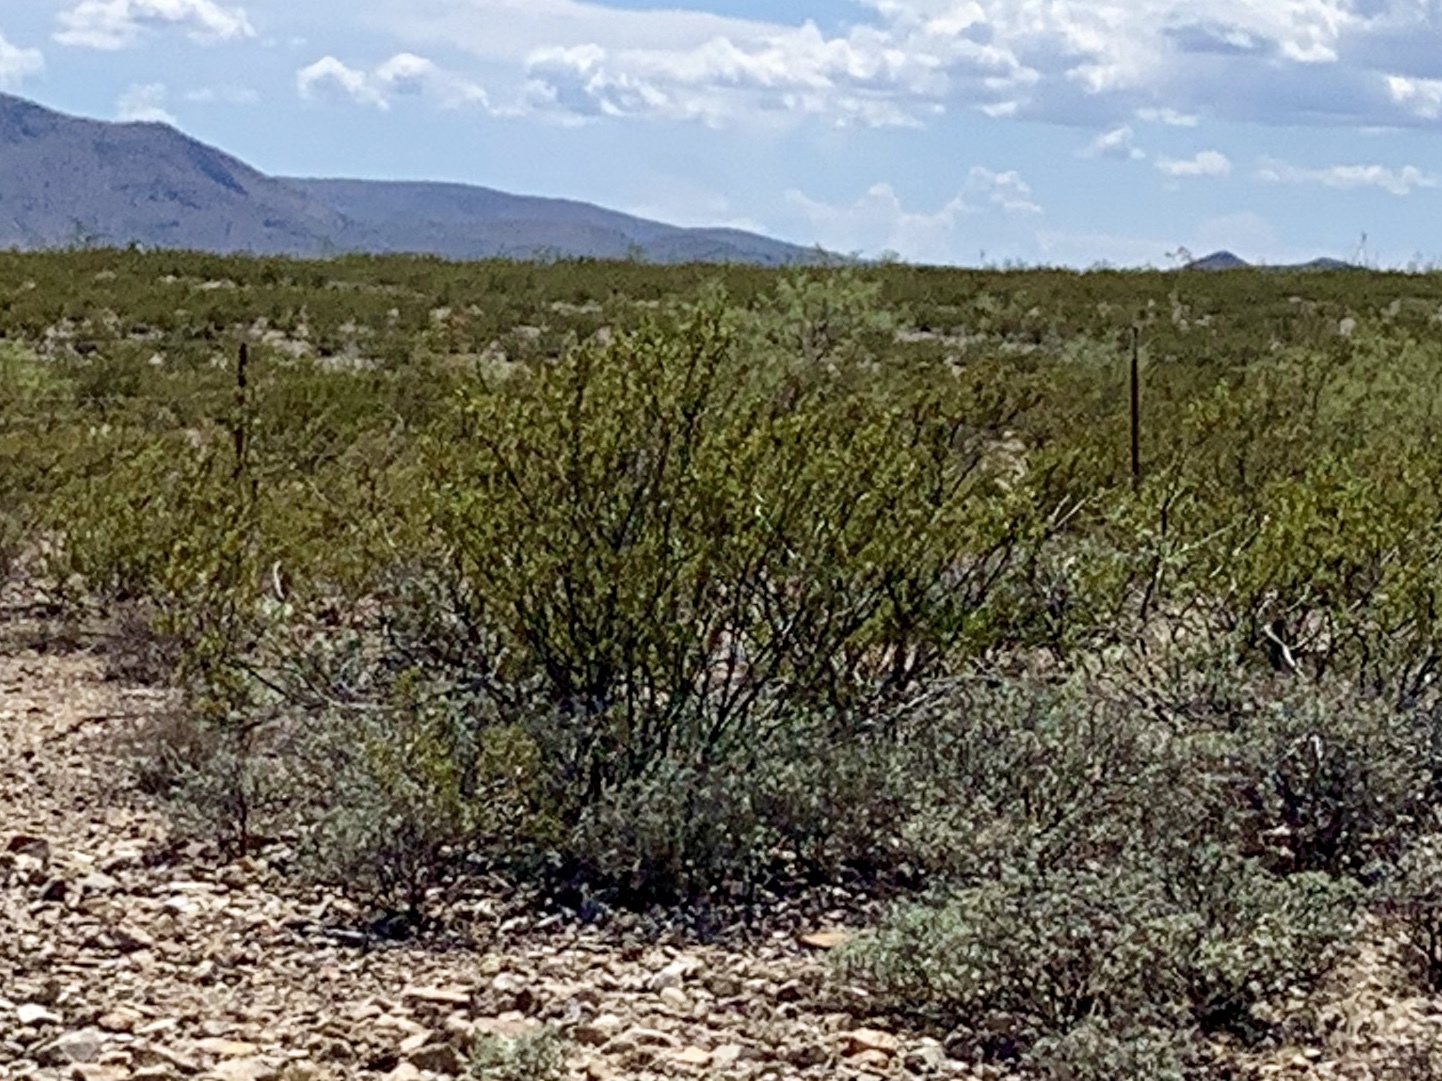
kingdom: Plantae
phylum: Tracheophyta
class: Magnoliopsida
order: Zygophyllales
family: Zygophyllaceae
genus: Larrea
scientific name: Larrea tridentata
